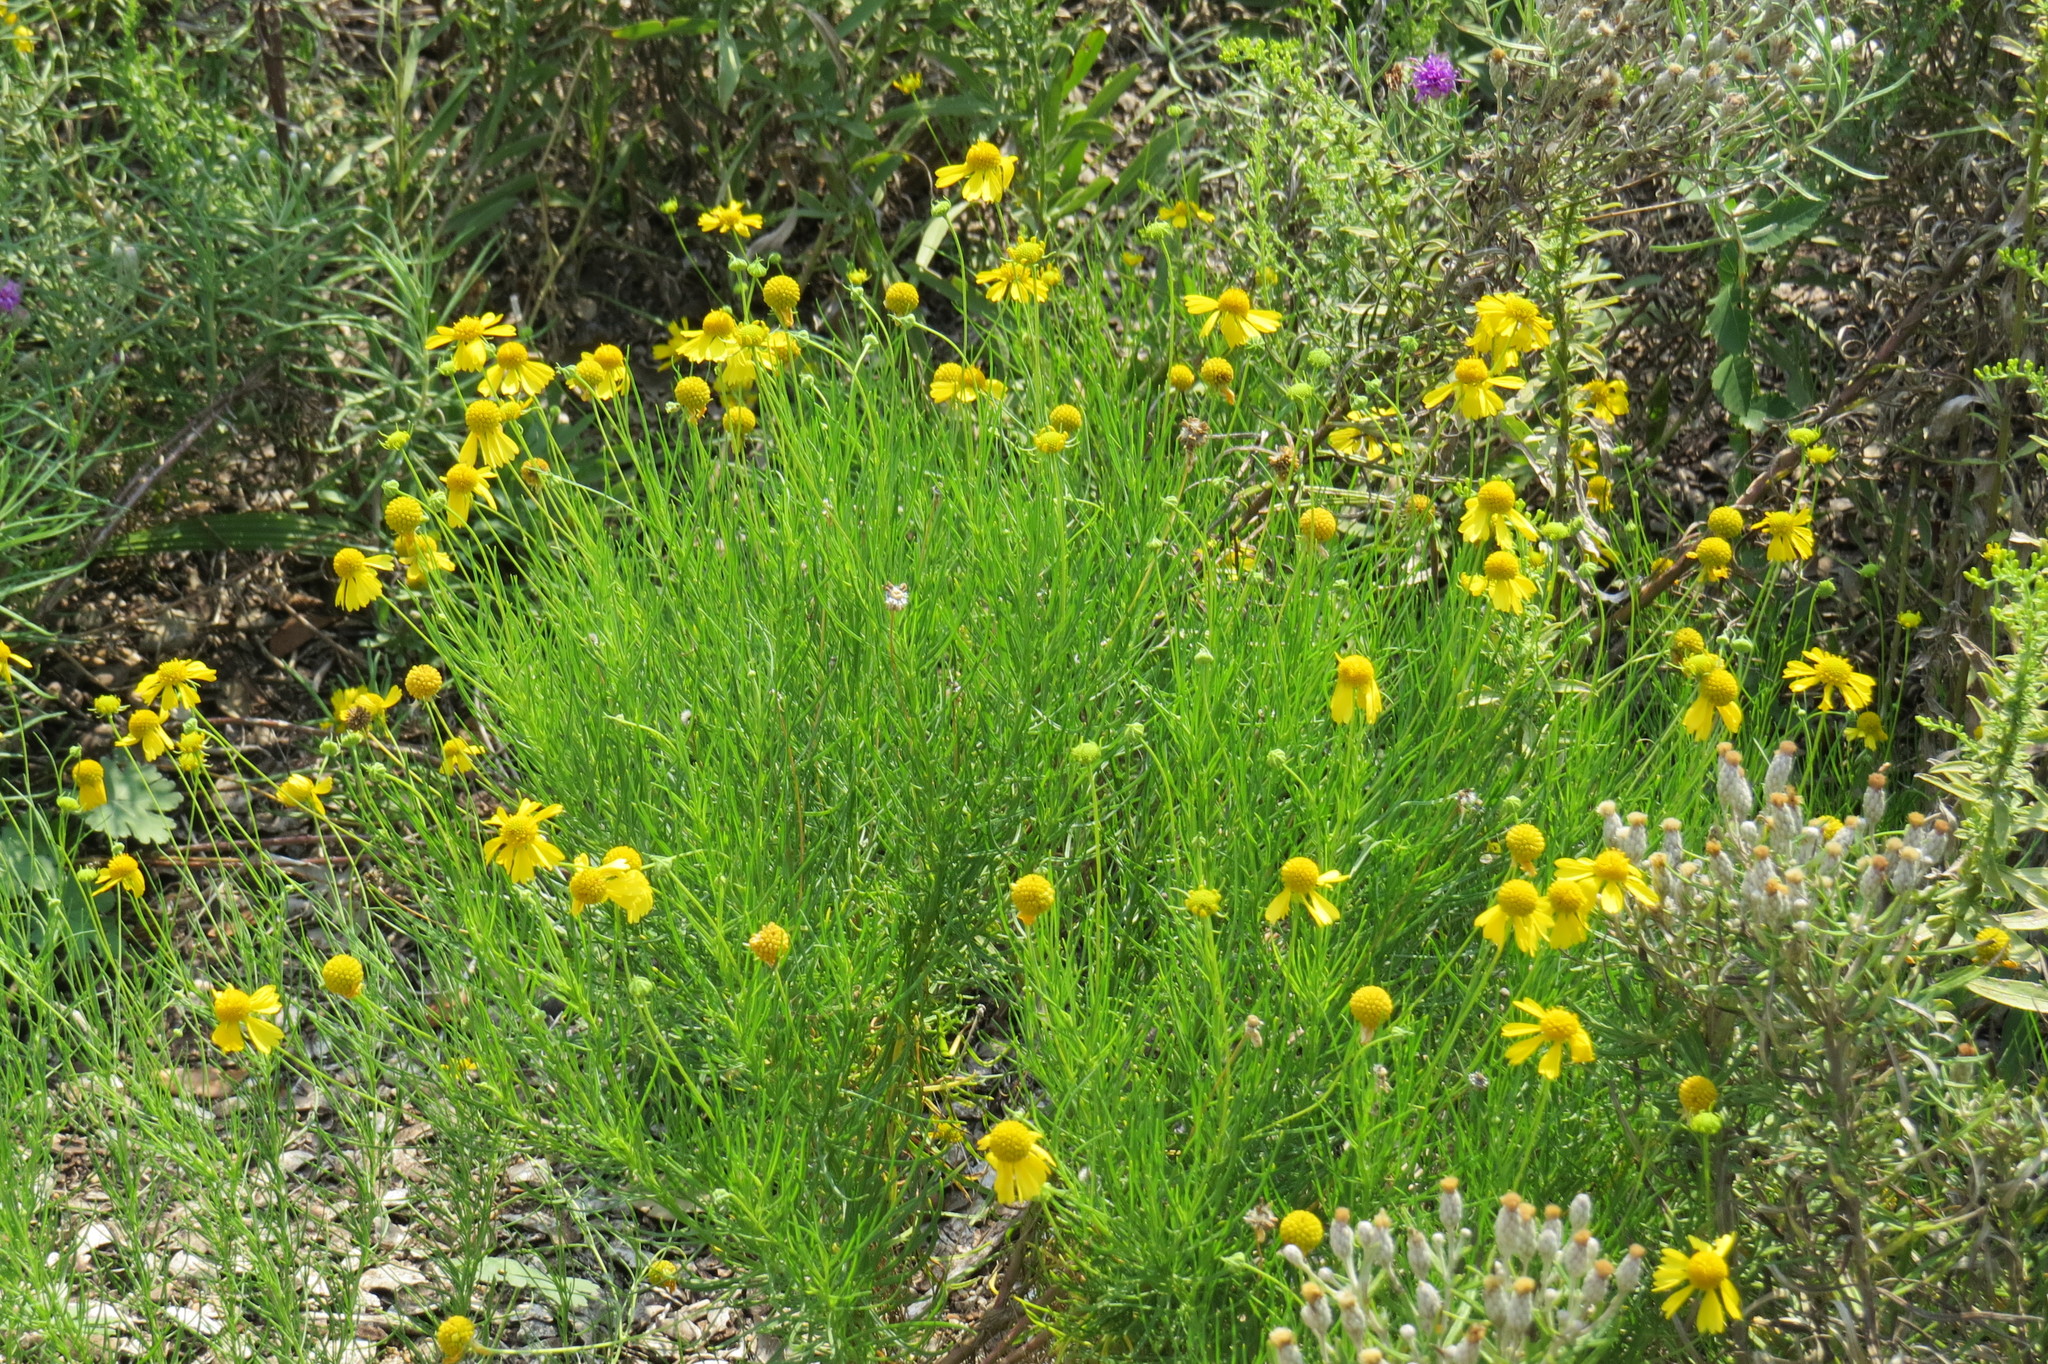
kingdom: Plantae
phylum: Tracheophyta
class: Magnoliopsida
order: Asterales
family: Asteraceae
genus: Helenium
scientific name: Helenium amarum
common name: Bitter sneezeweed
